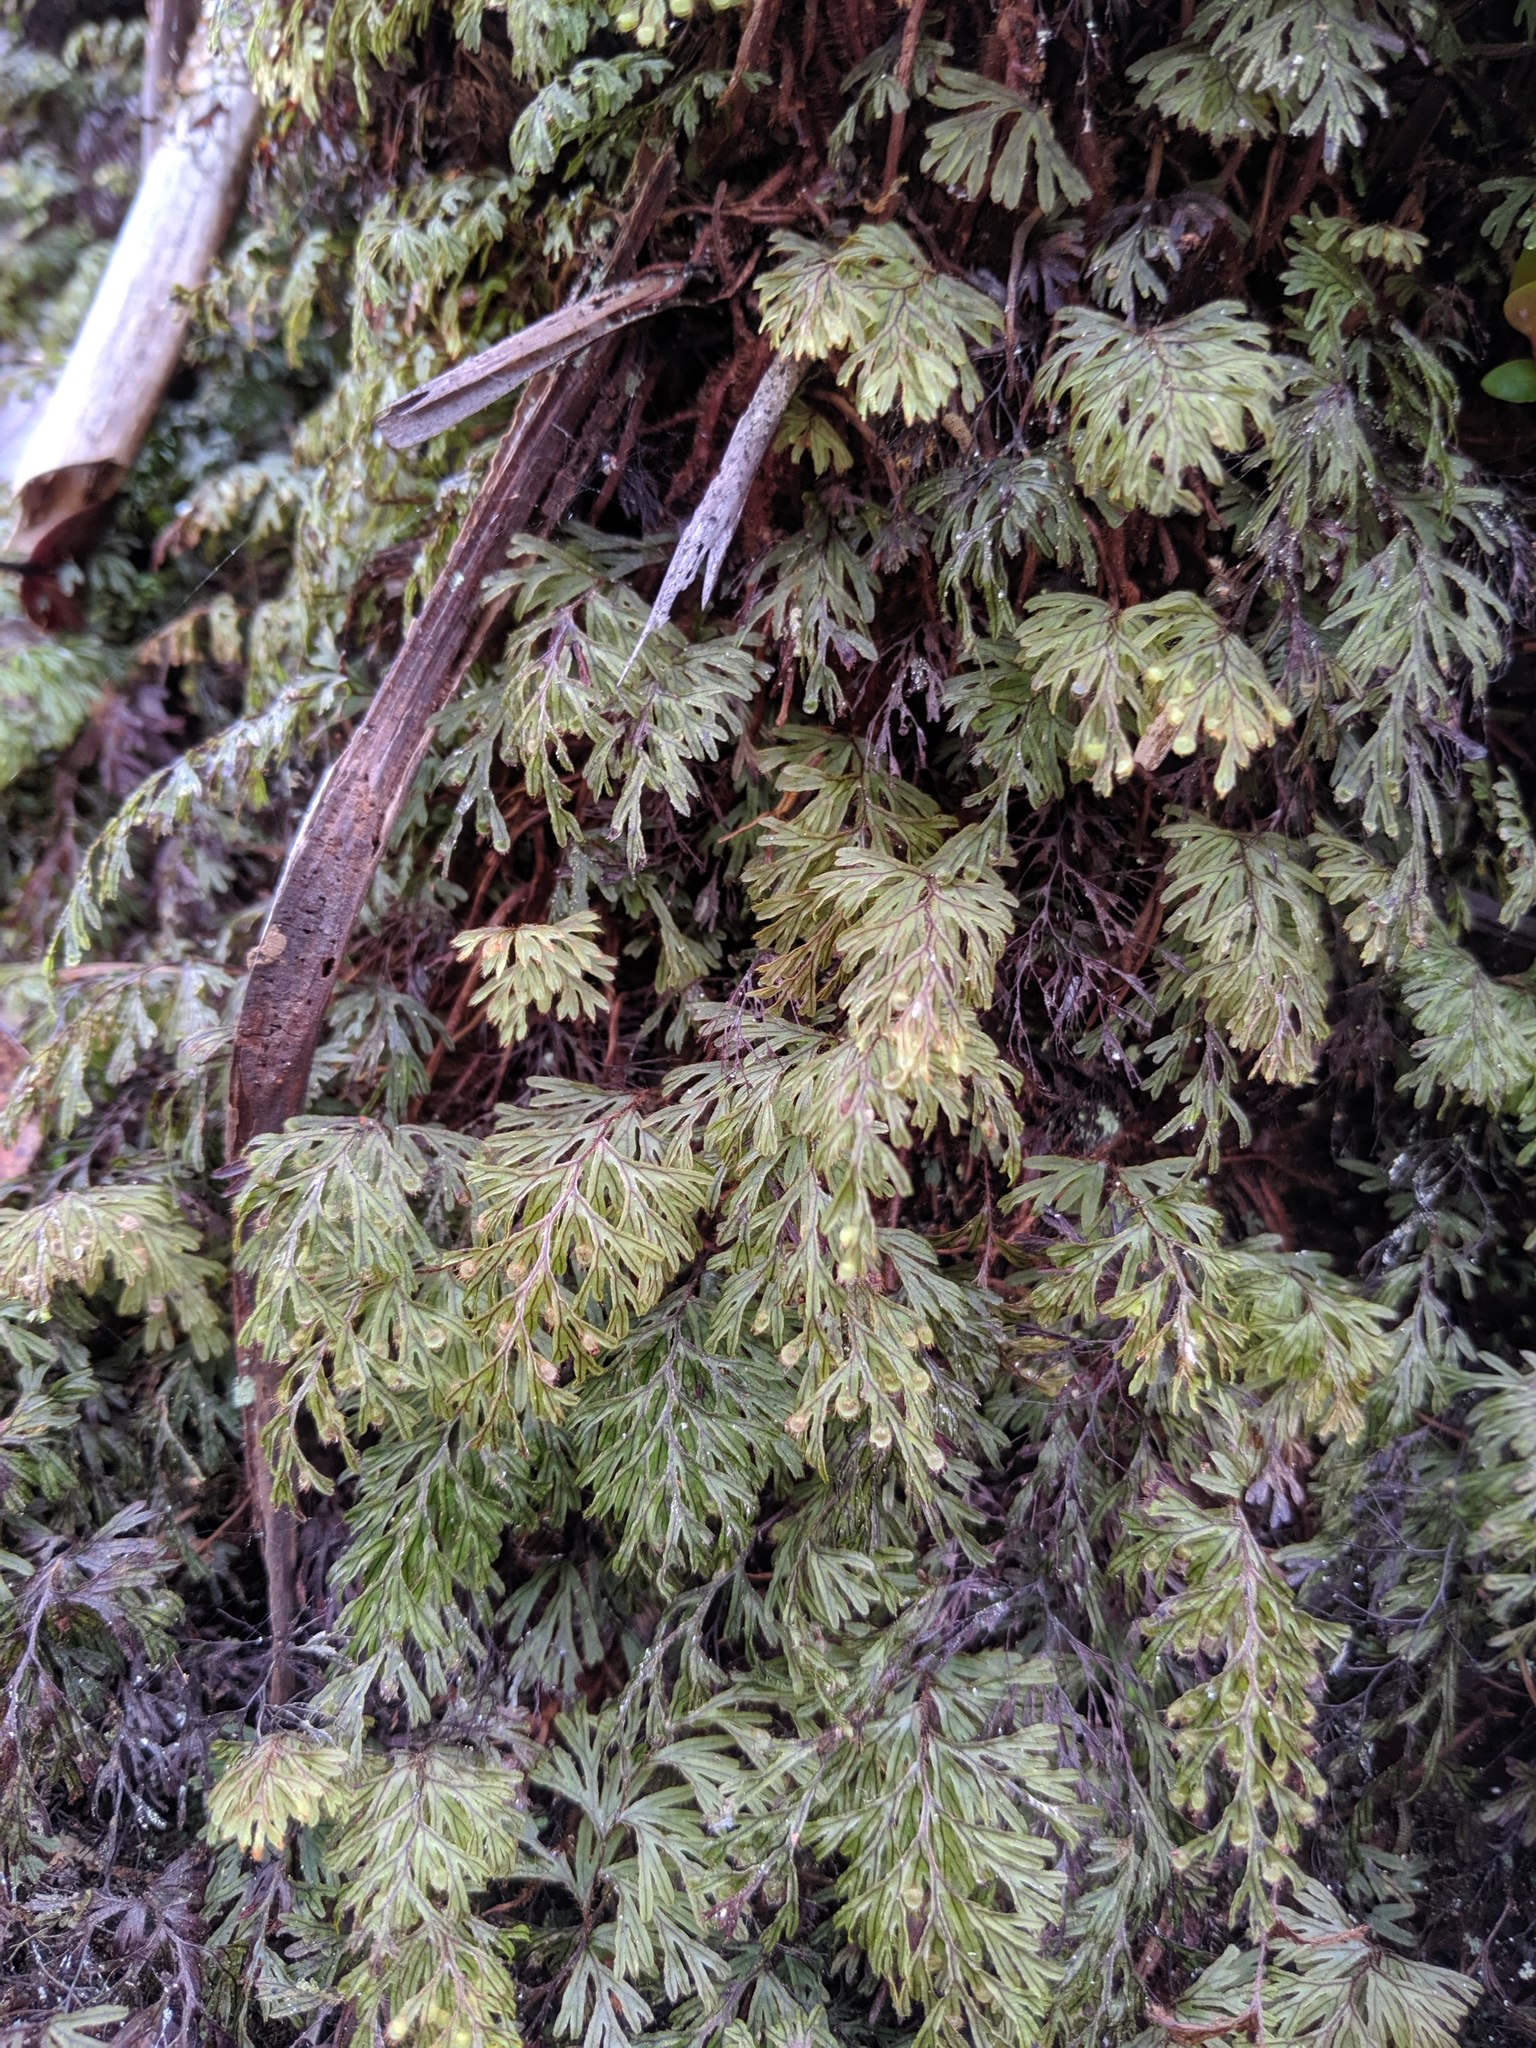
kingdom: Plantae
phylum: Tracheophyta
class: Polypodiopsida
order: Hymenophyllales
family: Hymenophyllaceae
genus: Hymenophyllum
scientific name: Hymenophyllum lanceolatum
